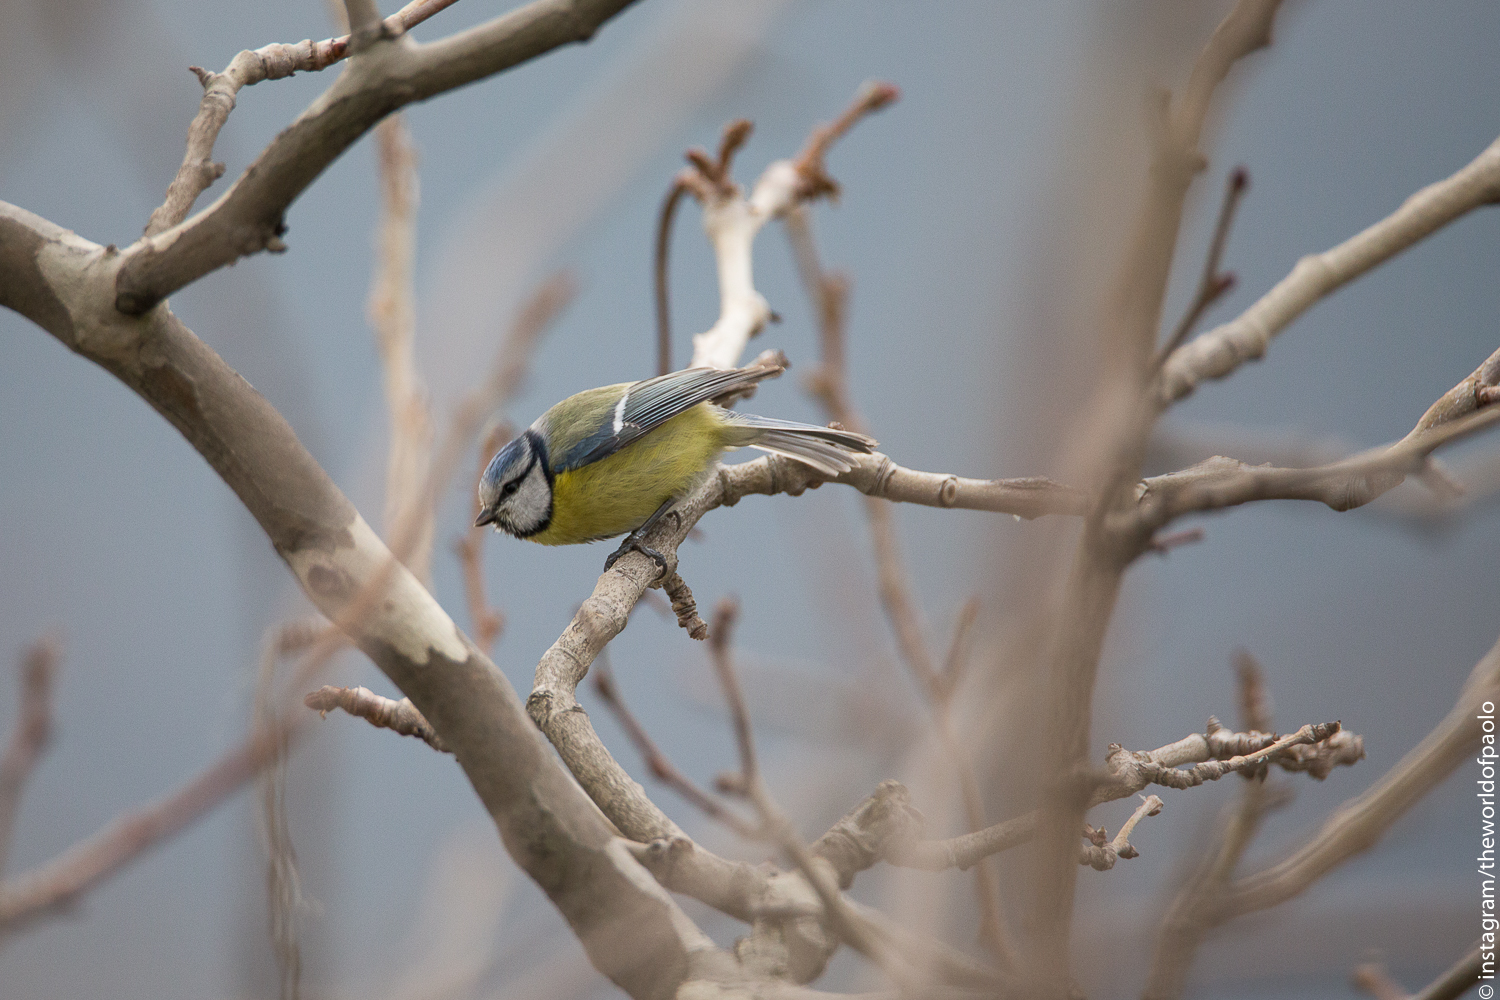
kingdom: Animalia
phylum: Chordata
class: Aves
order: Passeriformes
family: Paridae
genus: Cyanistes
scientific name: Cyanistes caeruleus
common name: Eurasian blue tit
